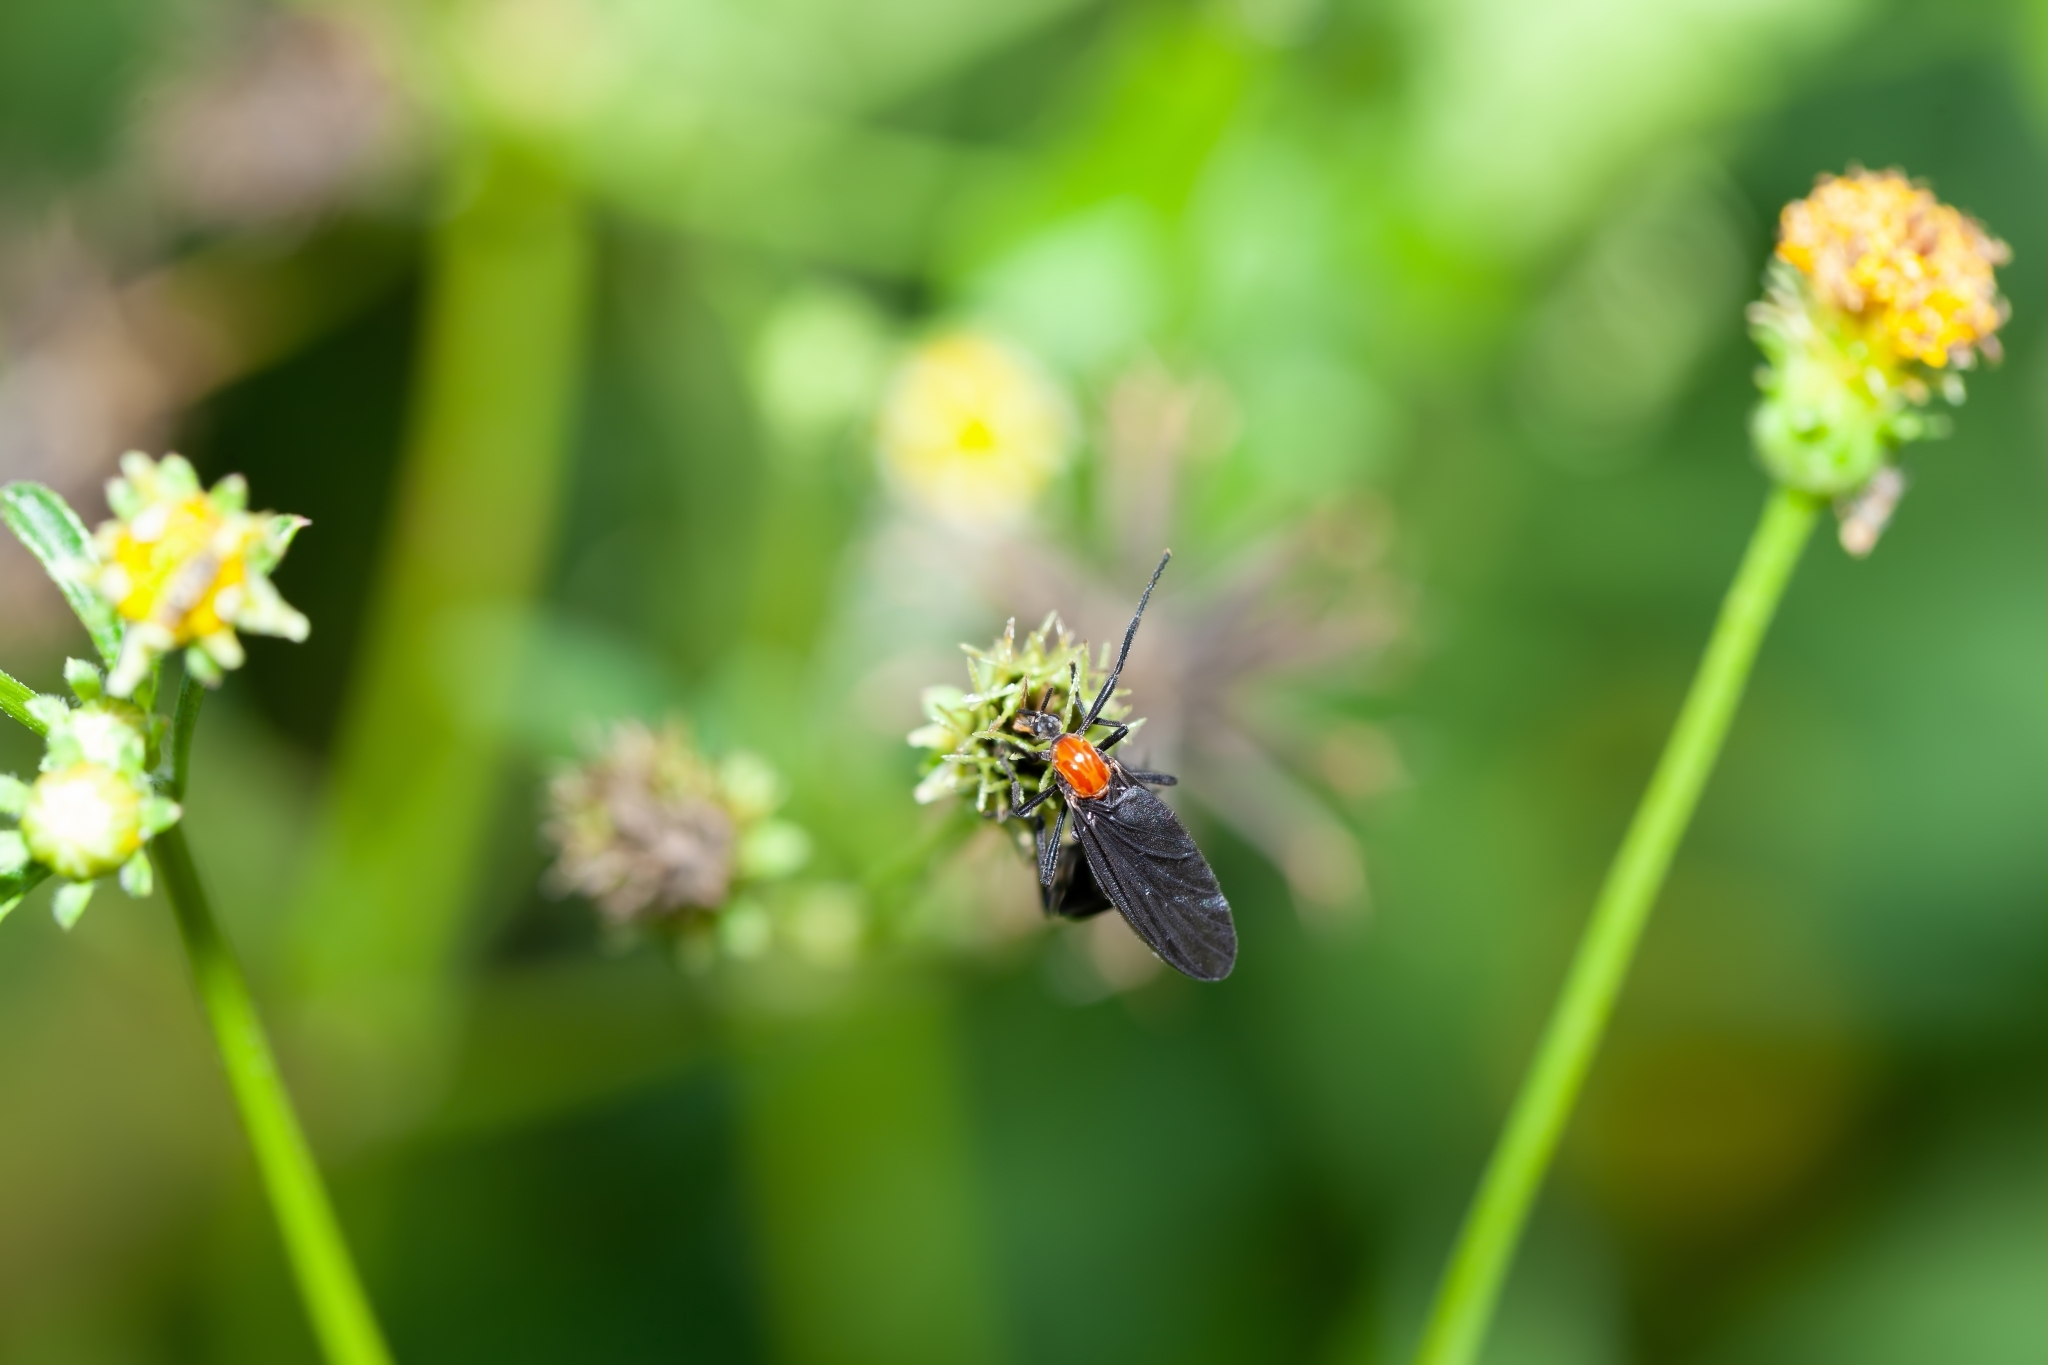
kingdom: Animalia
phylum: Arthropoda
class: Insecta
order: Diptera
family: Bibionidae
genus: Plecia
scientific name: Plecia nearctica
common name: March fly
